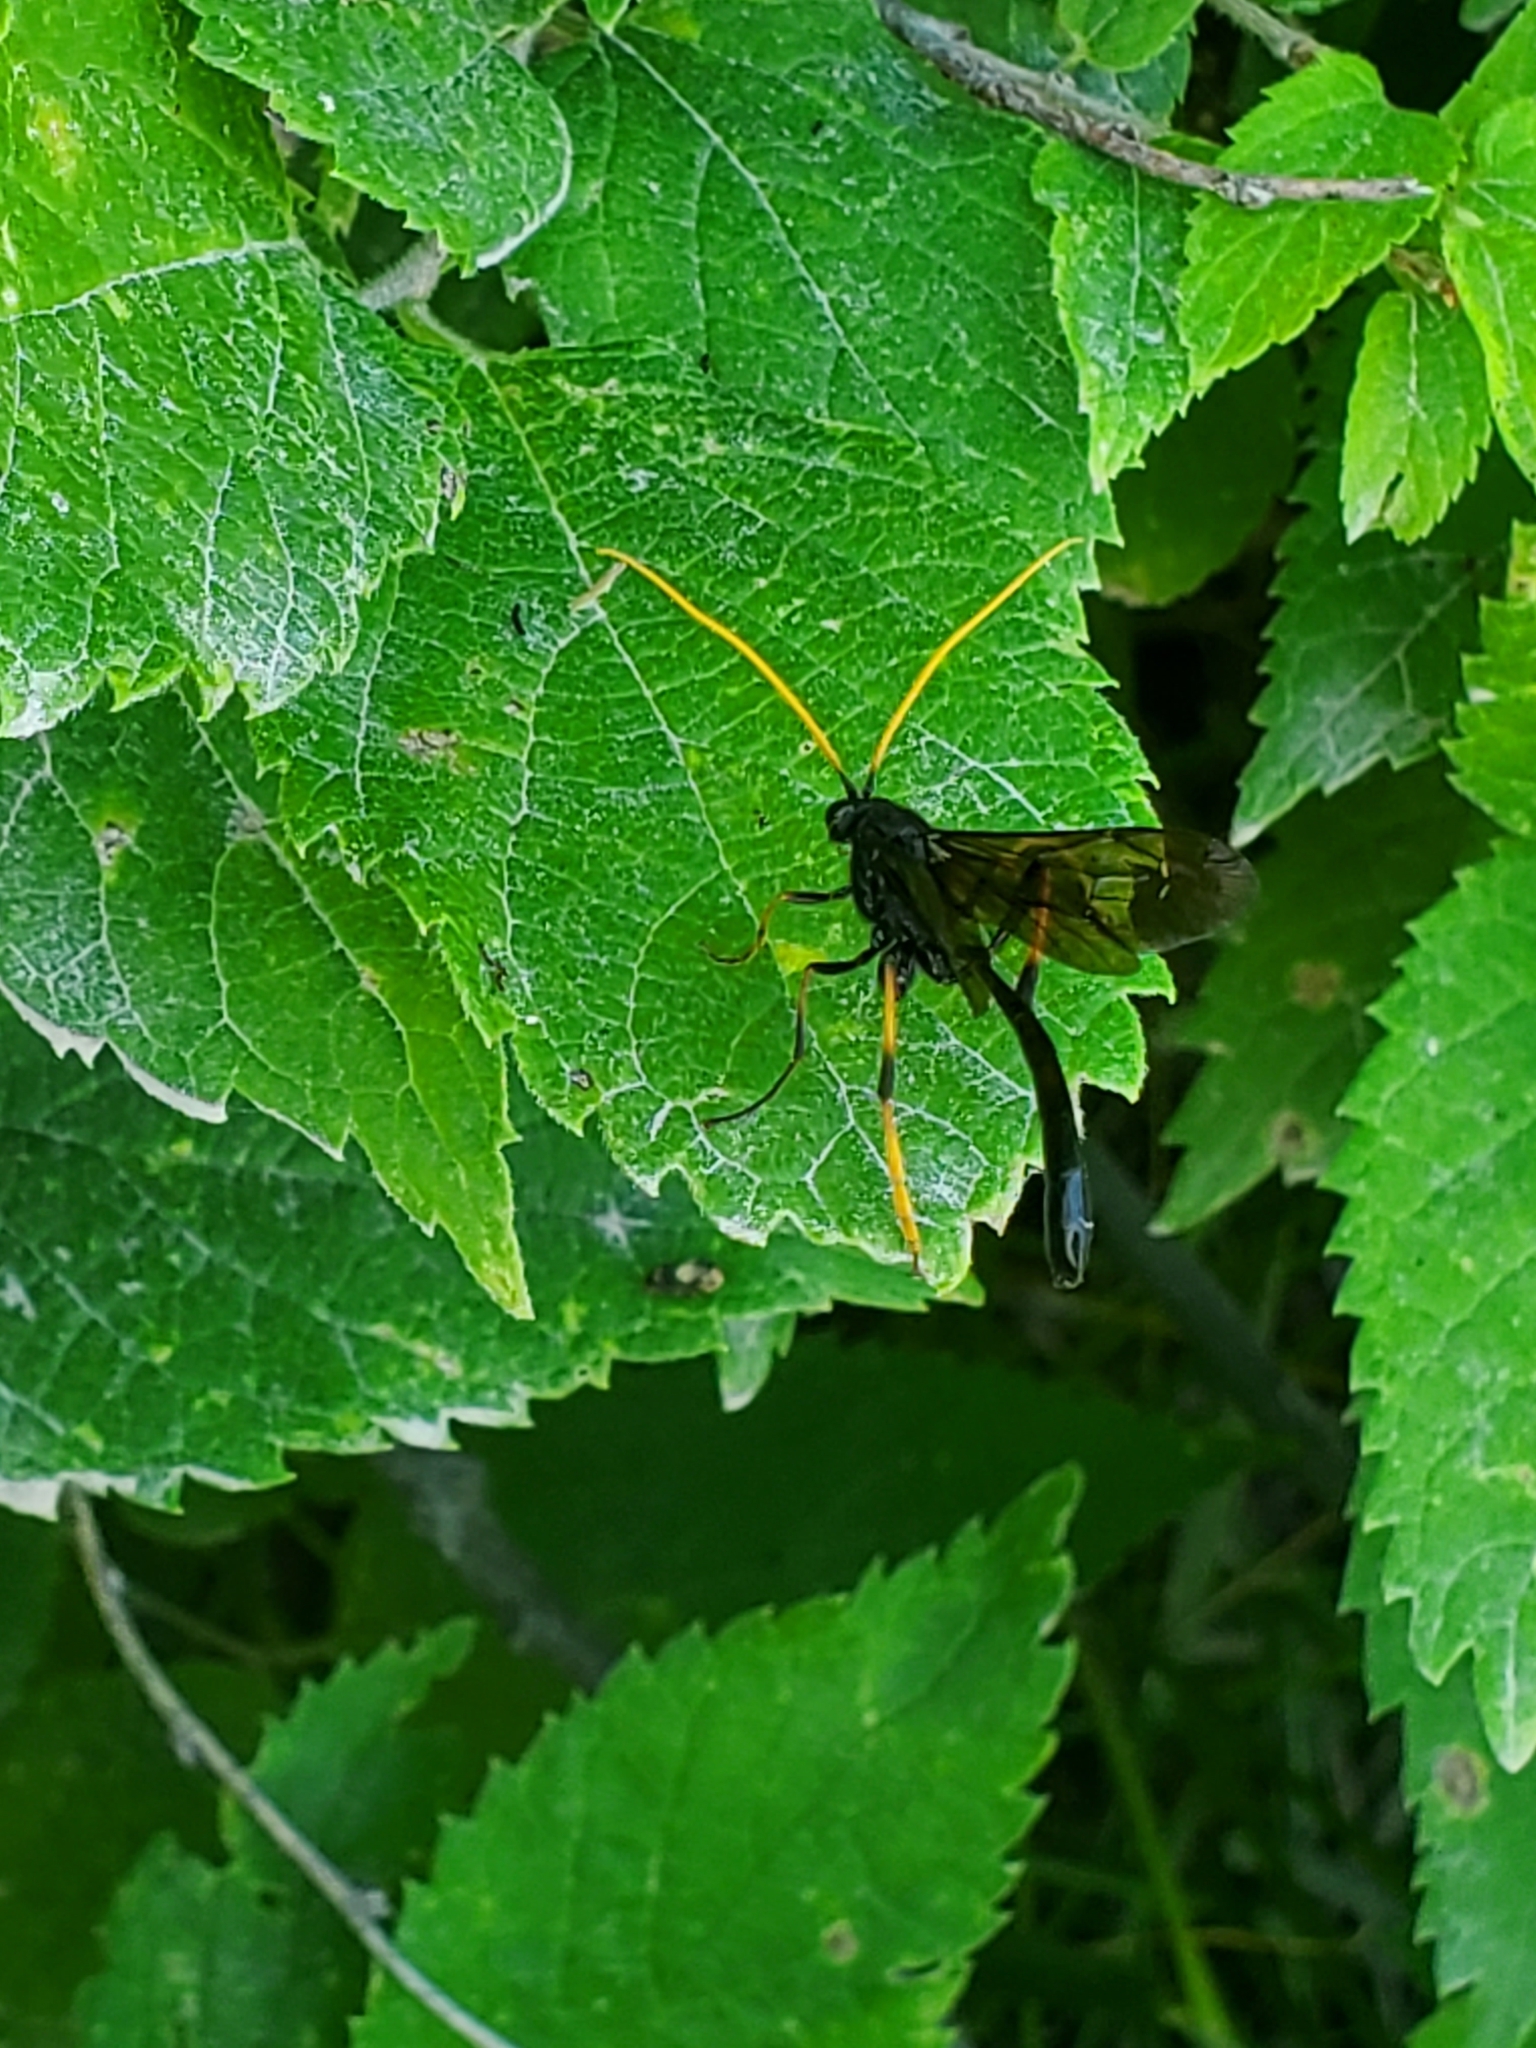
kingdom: Animalia
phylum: Arthropoda
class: Insecta
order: Hymenoptera
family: Ichneumonidae
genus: Therion
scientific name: Therion morio
